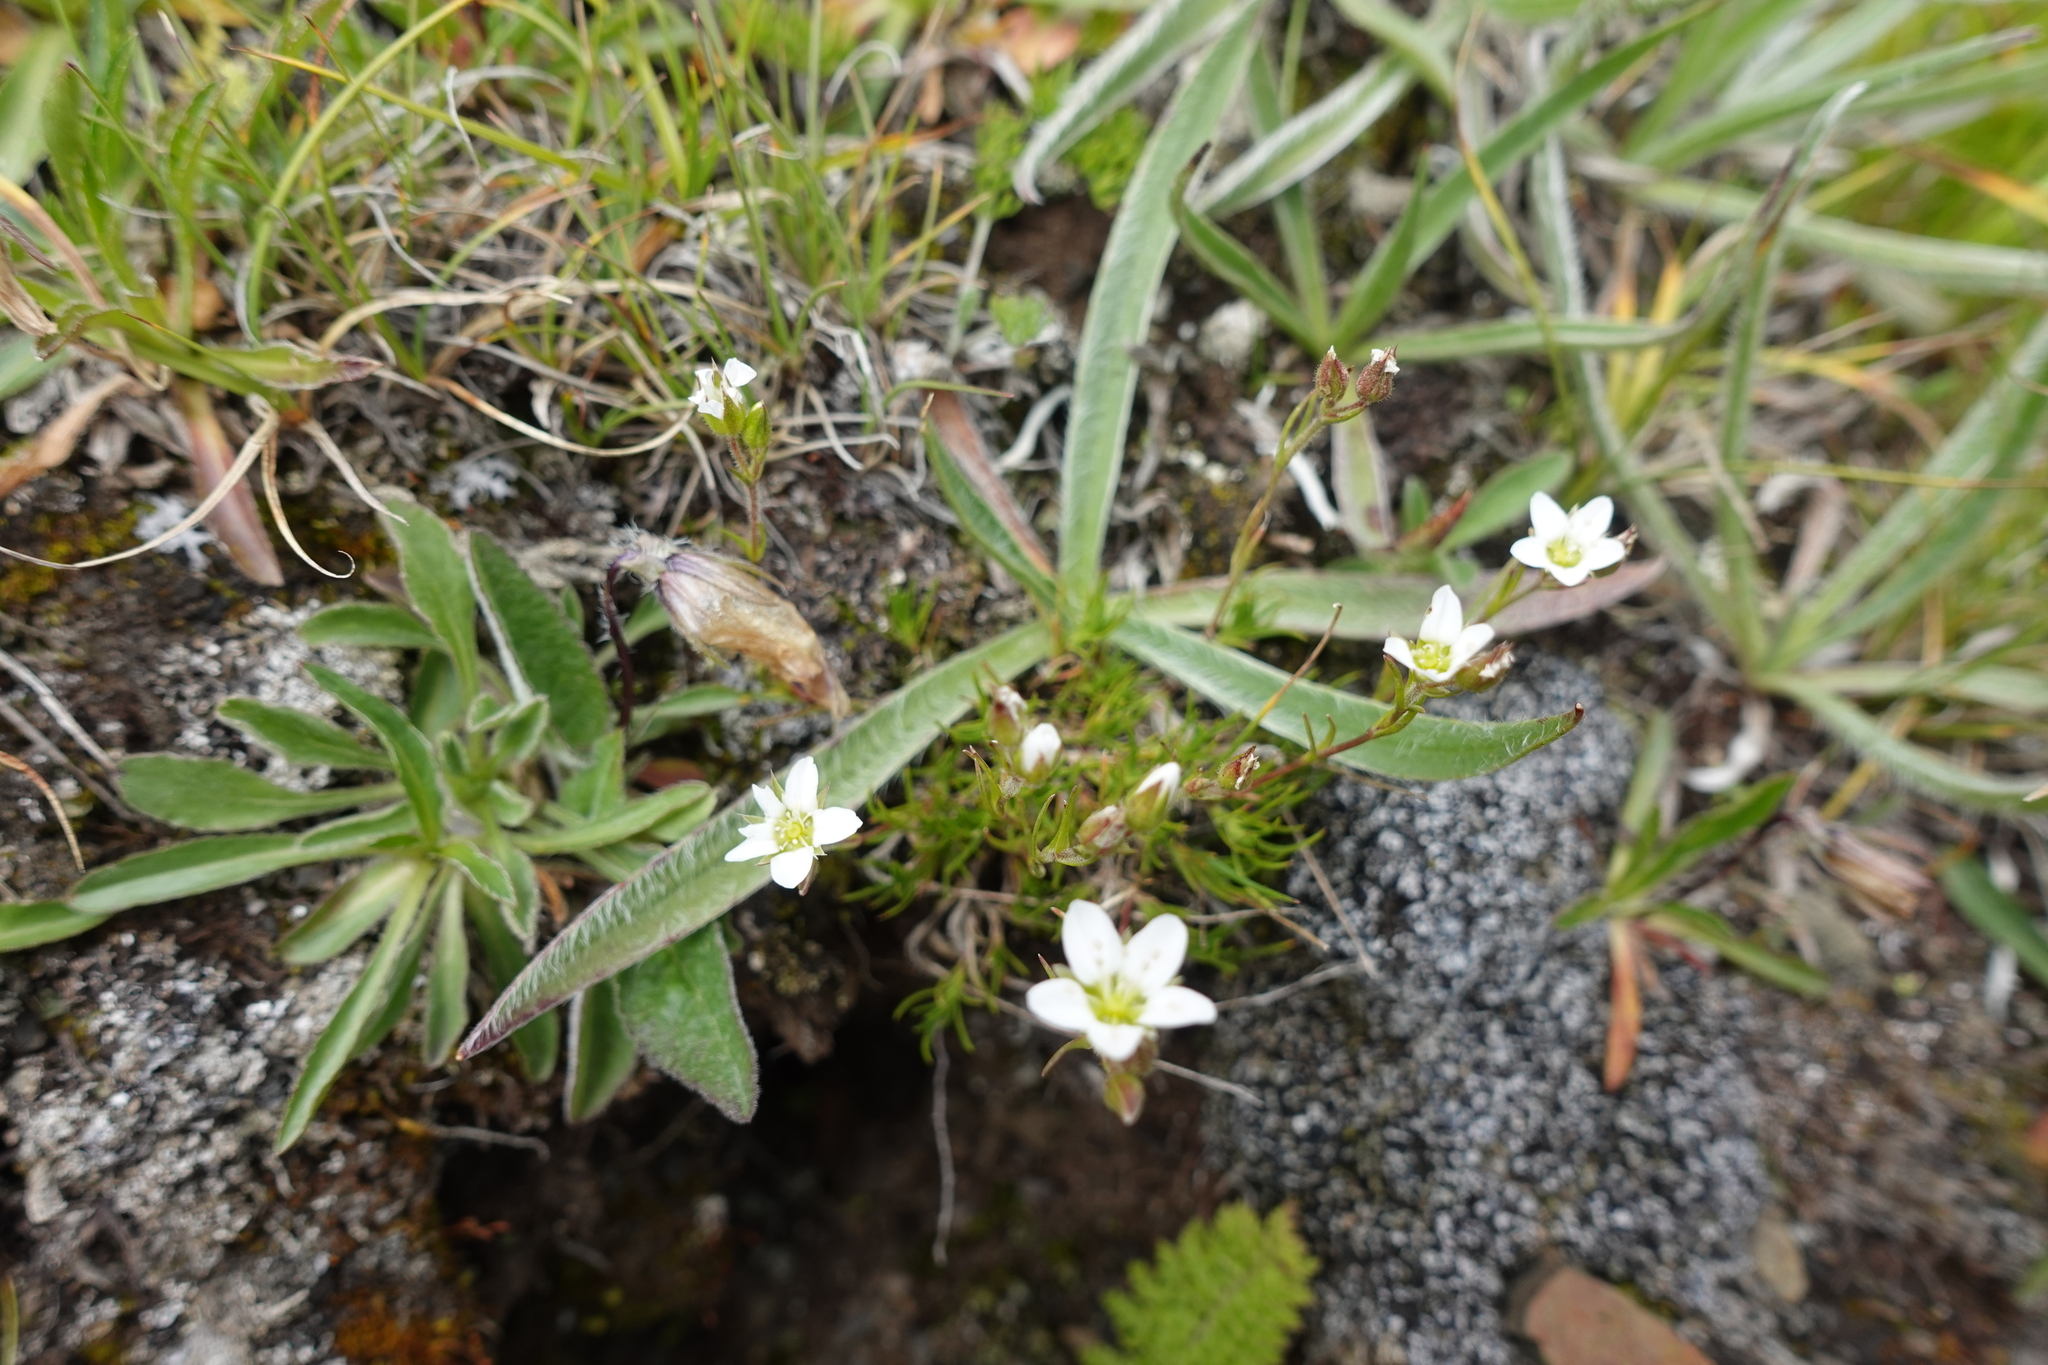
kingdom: Plantae
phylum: Tracheophyta
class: Magnoliopsida
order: Caryophyllales
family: Caryophyllaceae
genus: Minuartia
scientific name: Minuartia hirsuta
